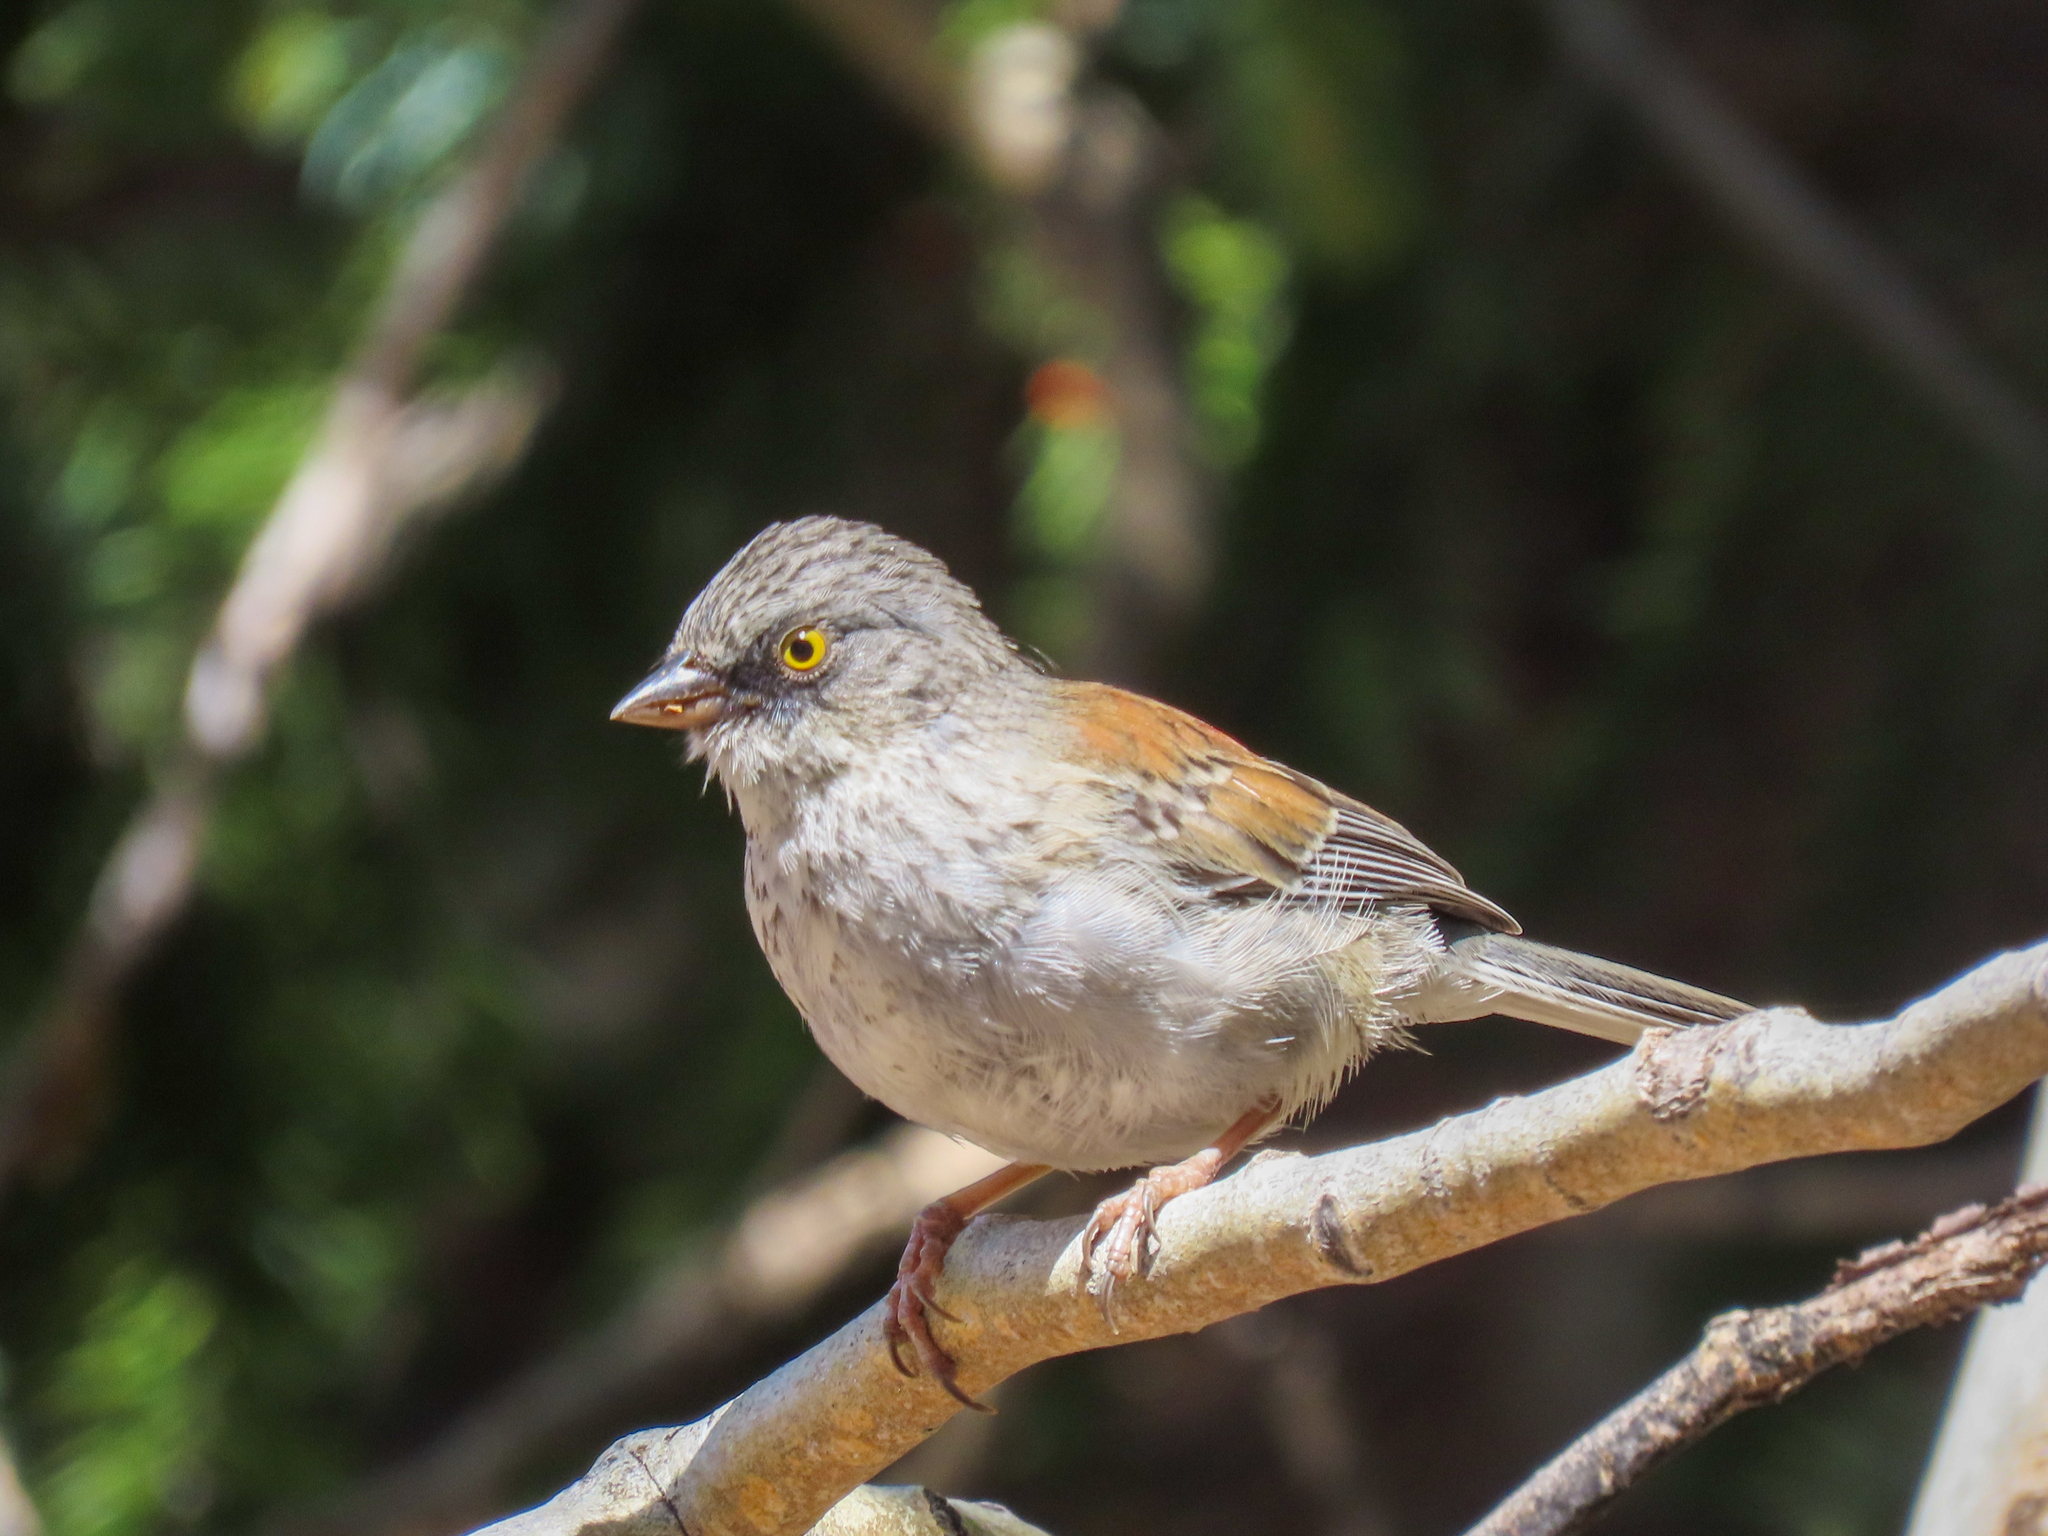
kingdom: Animalia
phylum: Chordata
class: Aves
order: Passeriformes
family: Passerellidae
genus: Junco
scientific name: Junco phaeonotus
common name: Yellow-eyed junco
